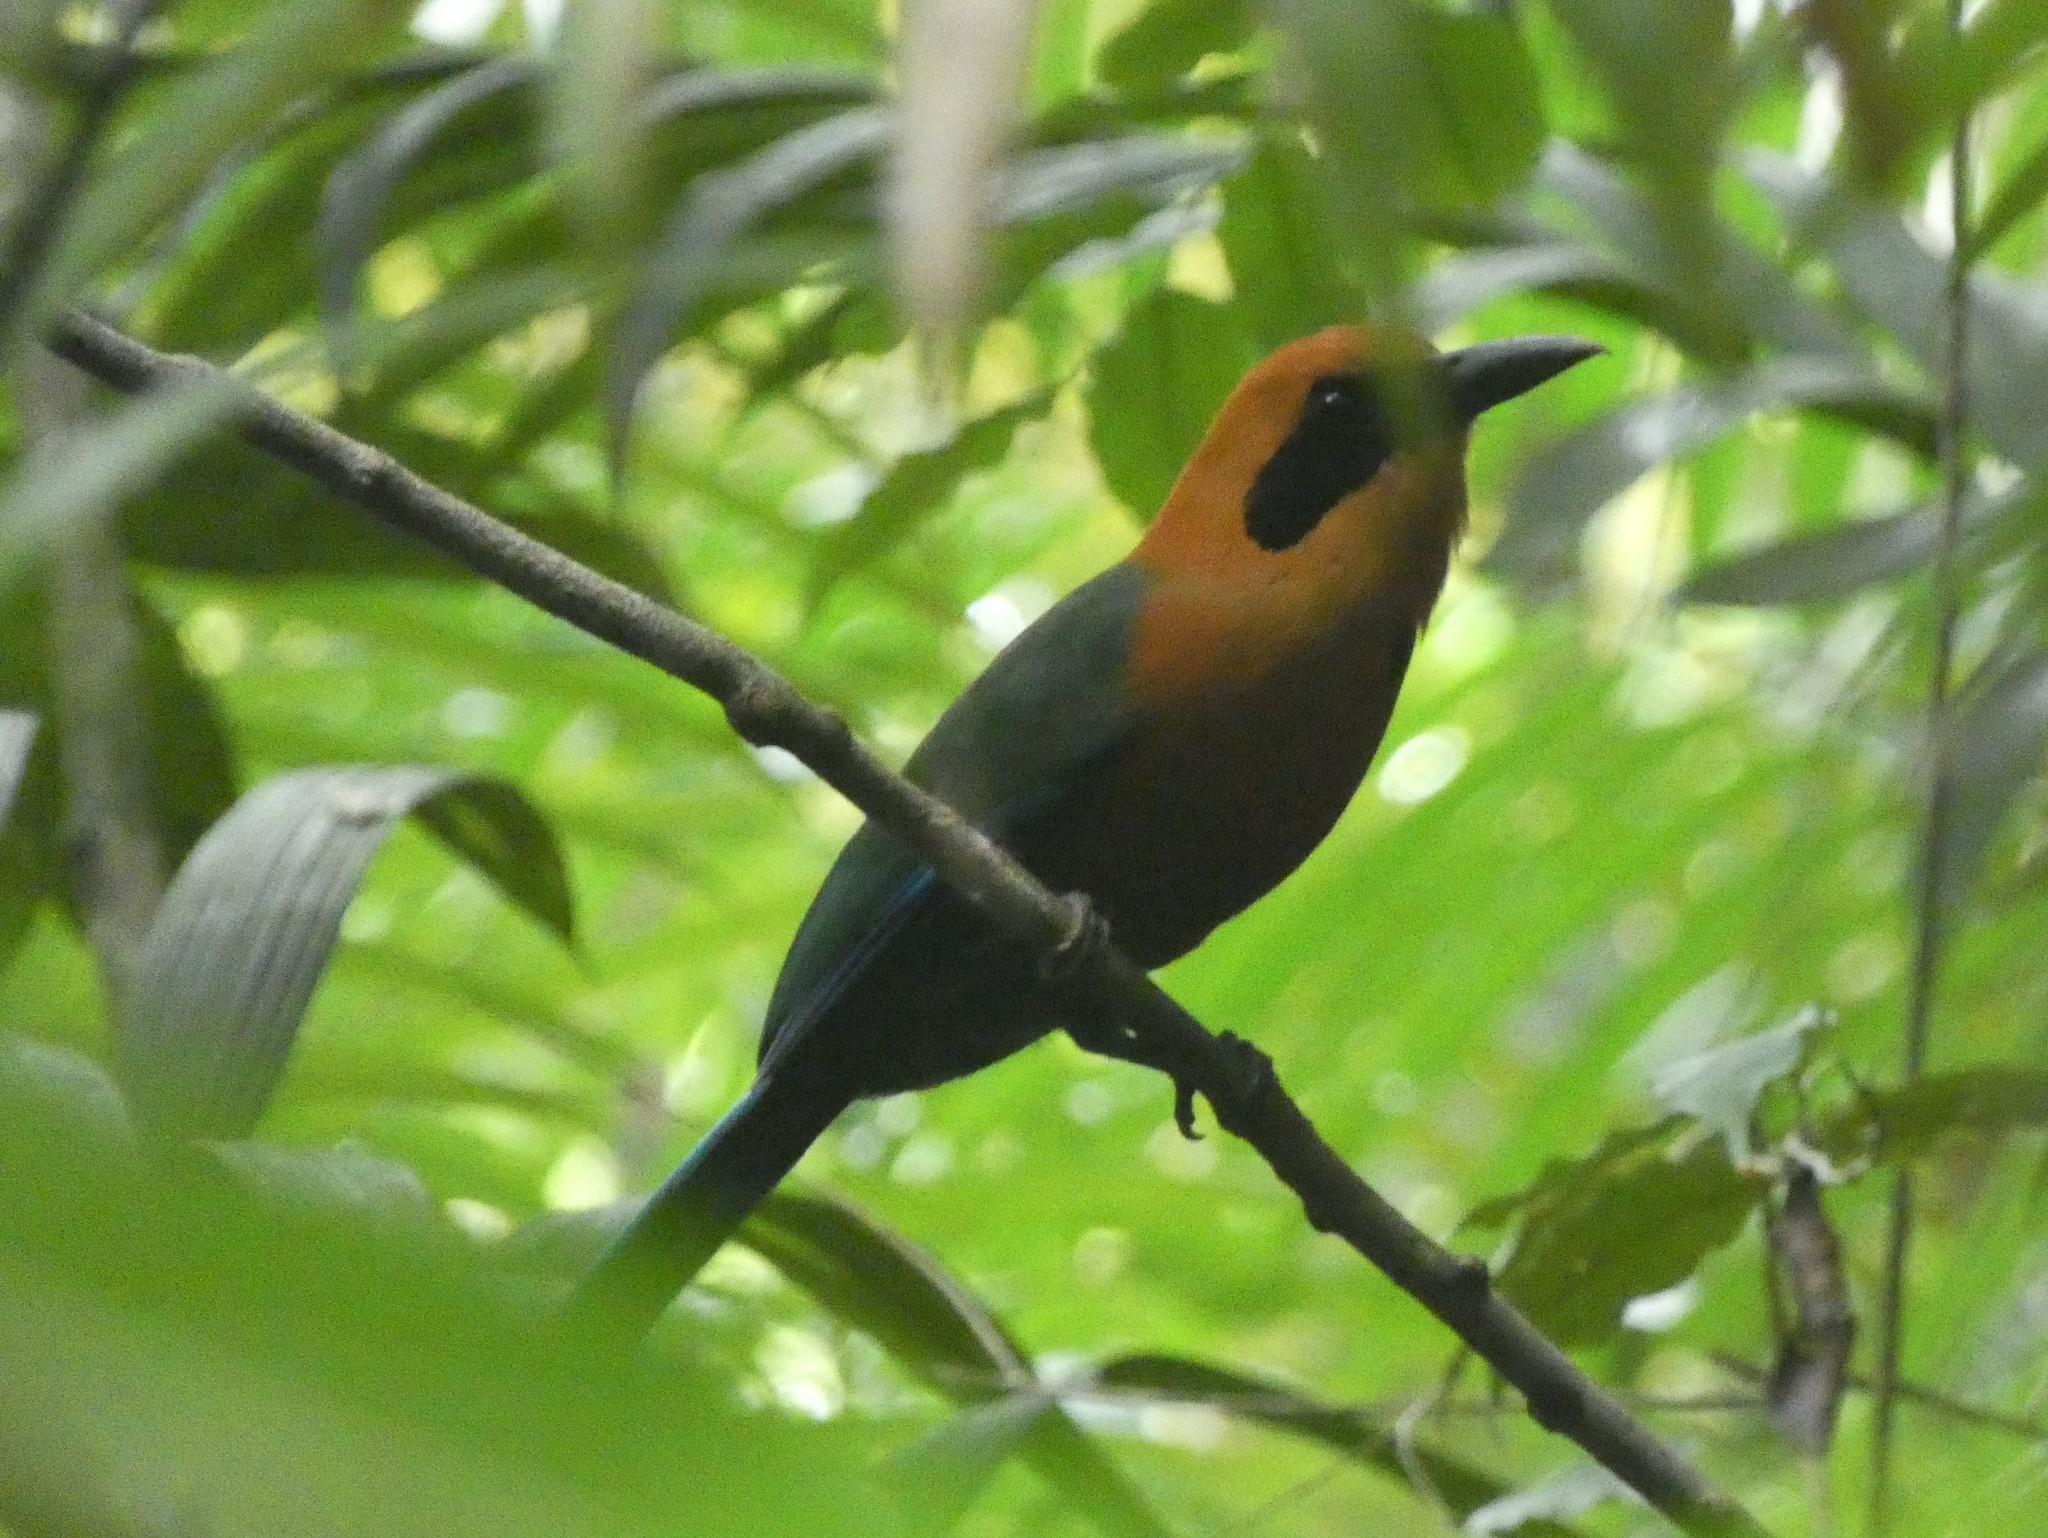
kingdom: Animalia
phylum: Chordata
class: Aves
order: Coraciiformes
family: Momotidae
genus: Baryphthengus
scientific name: Baryphthengus martii
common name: Rufous motmot
